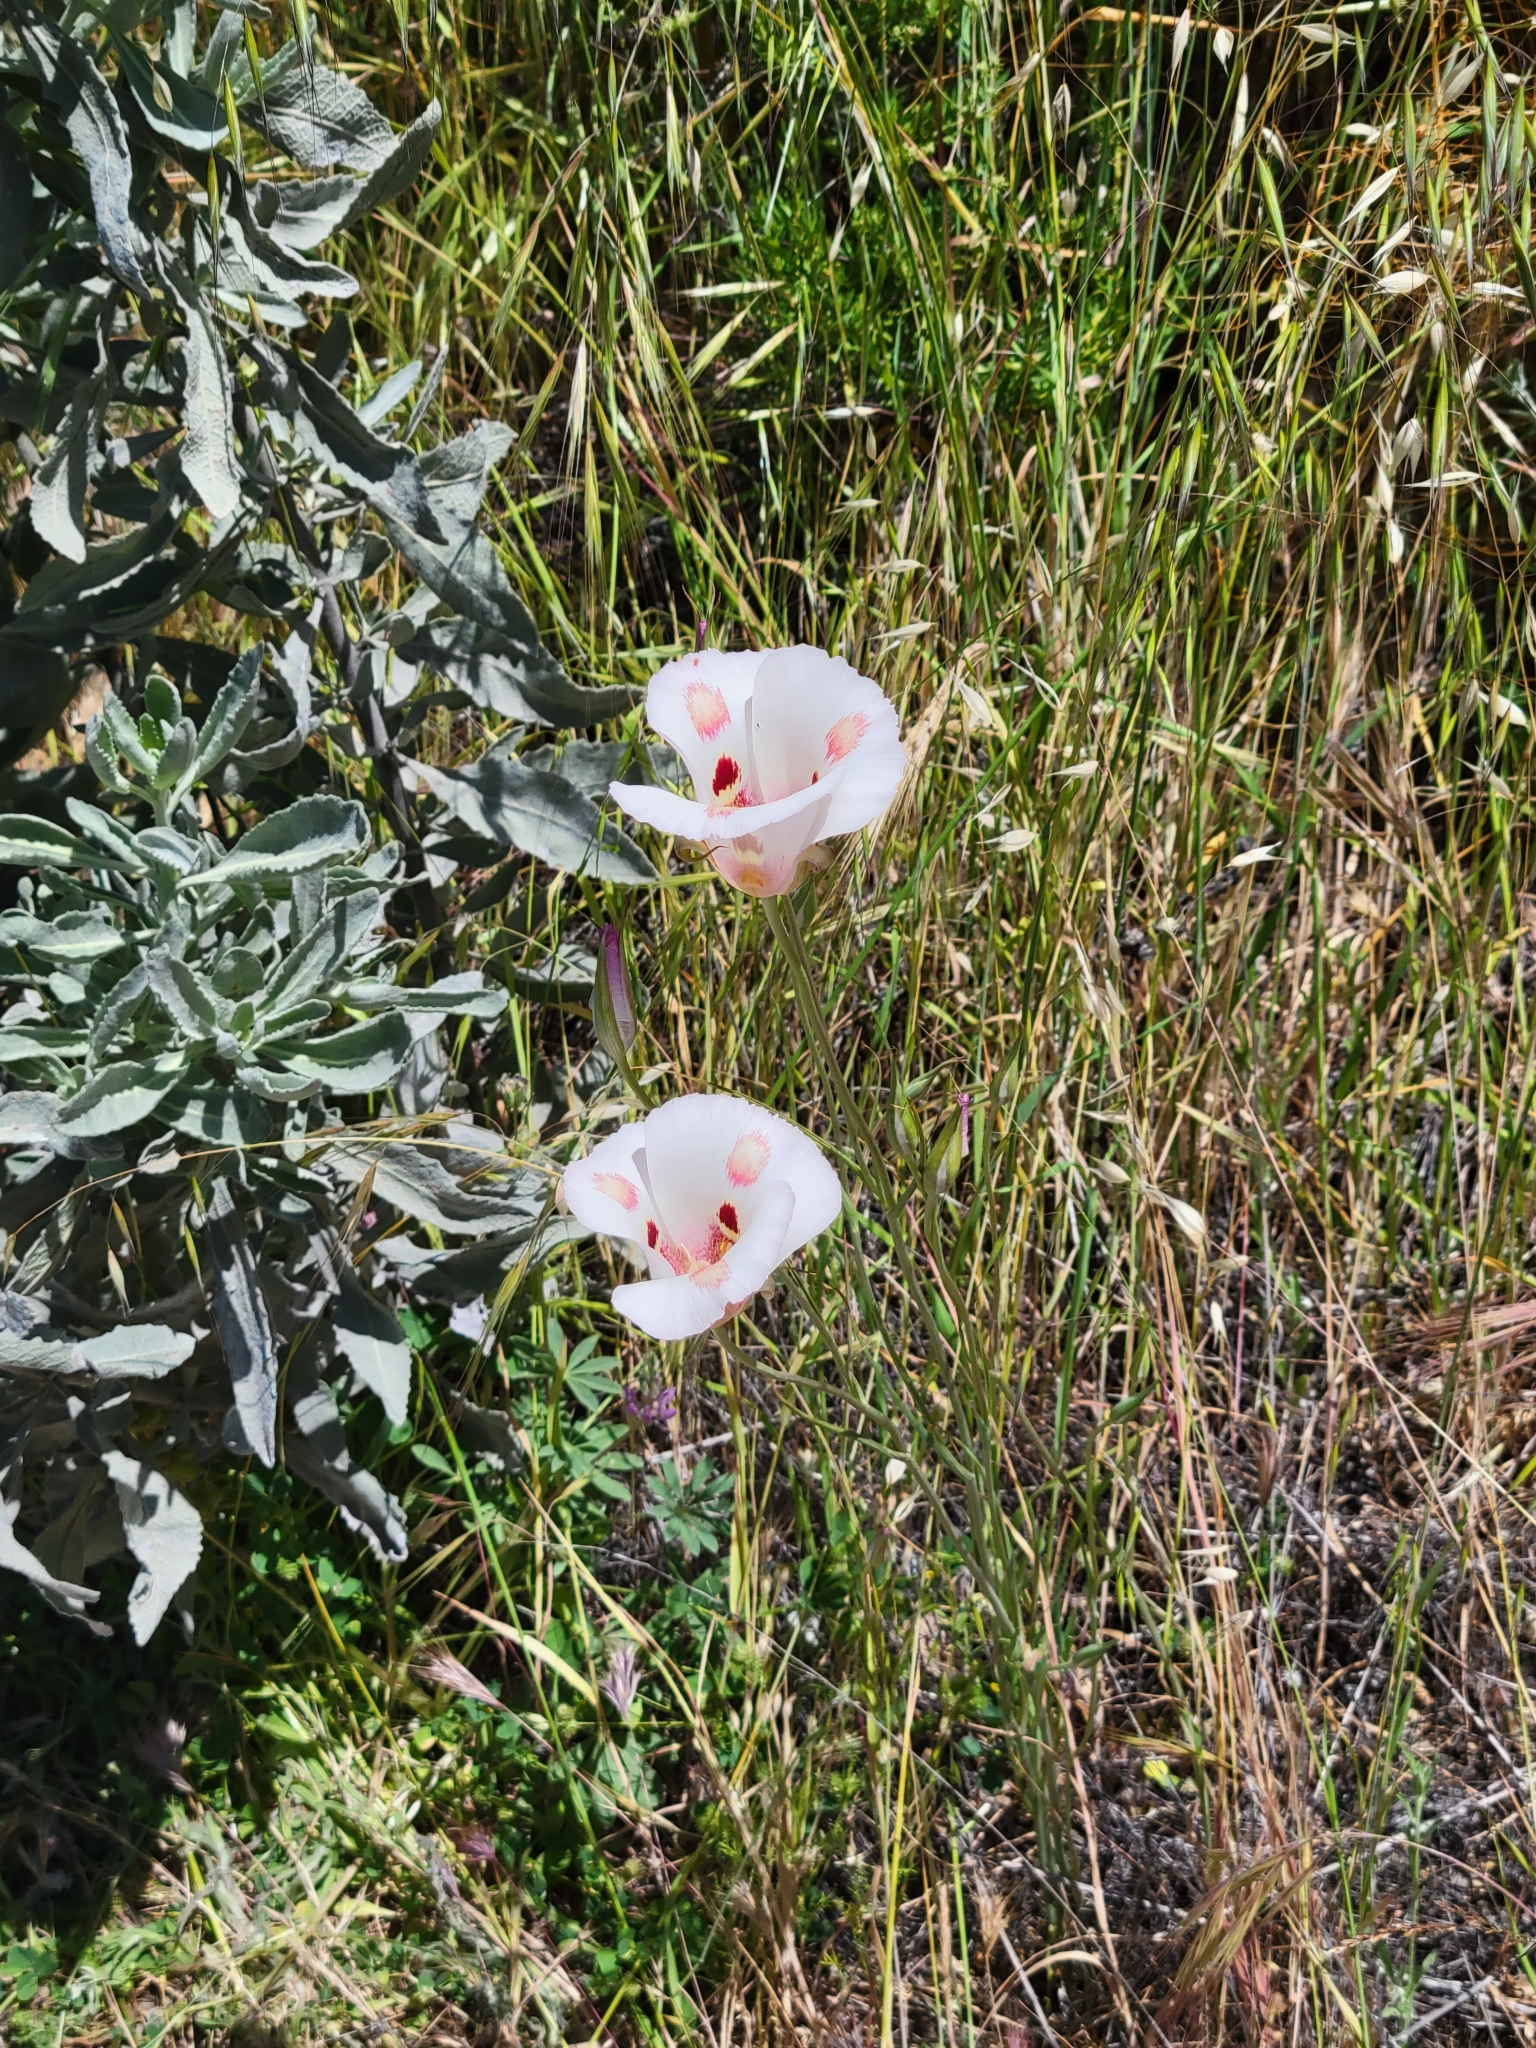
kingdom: Plantae
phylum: Tracheophyta
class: Liliopsida
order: Liliales
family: Liliaceae
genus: Calochortus
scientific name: Calochortus venustus
